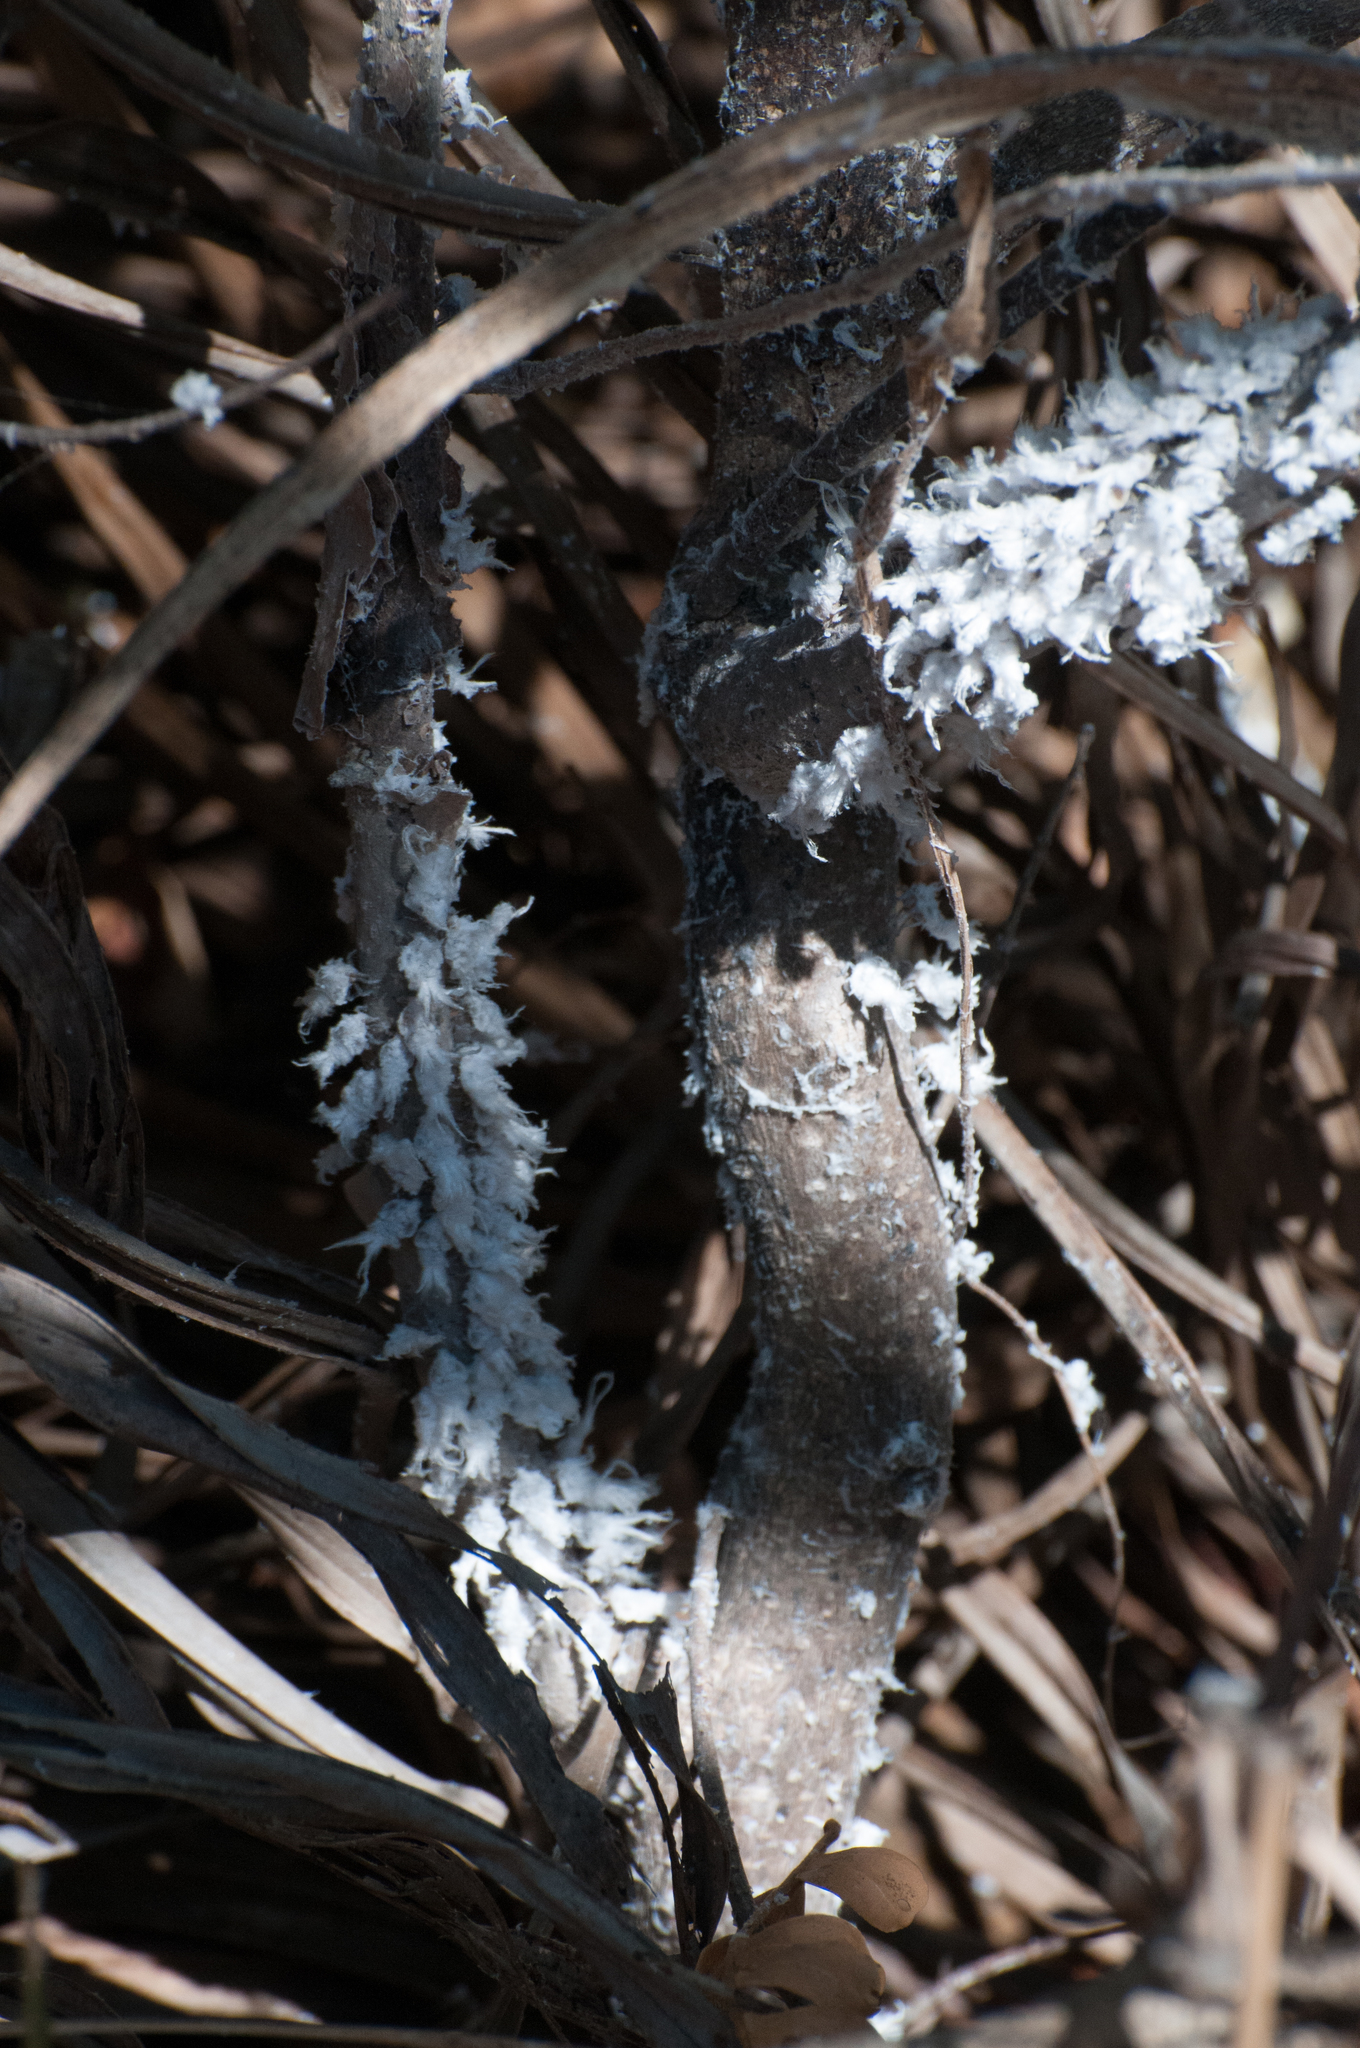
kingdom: Animalia
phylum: Arthropoda
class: Insecta
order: Hemiptera
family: Flatidae
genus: Flatida
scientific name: Flatida rosea
